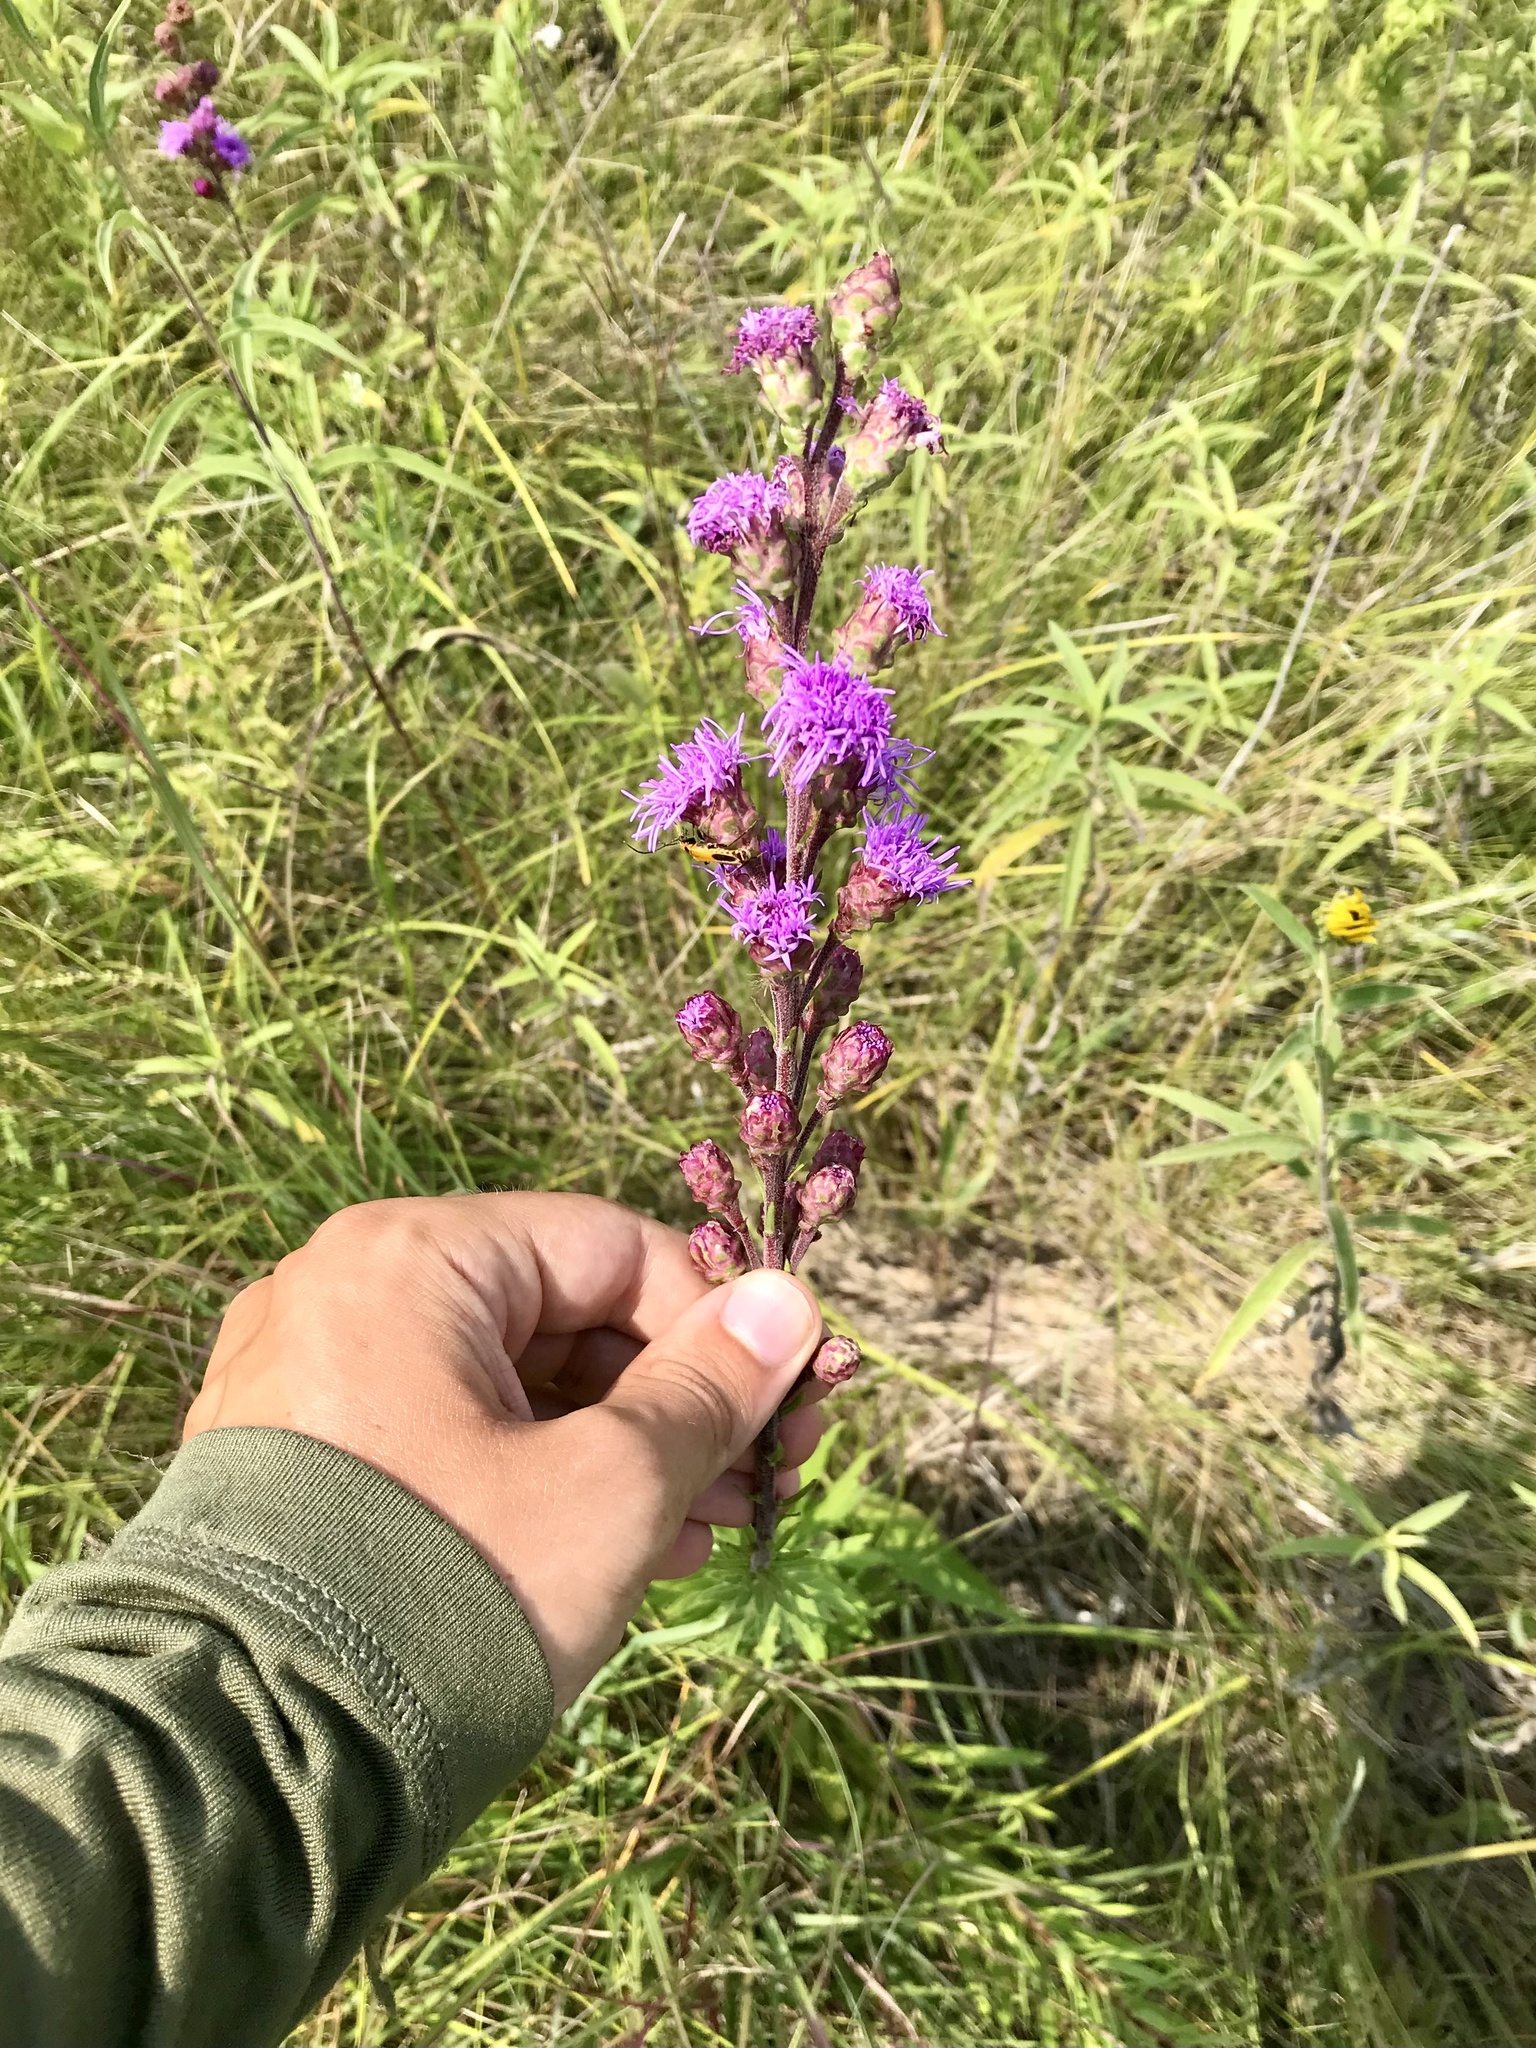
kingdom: Plantae
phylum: Tracheophyta
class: Magnoliopsida
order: Asterales
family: Asteraceae
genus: Liatris
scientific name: Liatris ligulistylis
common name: Northern plains gayfeather
